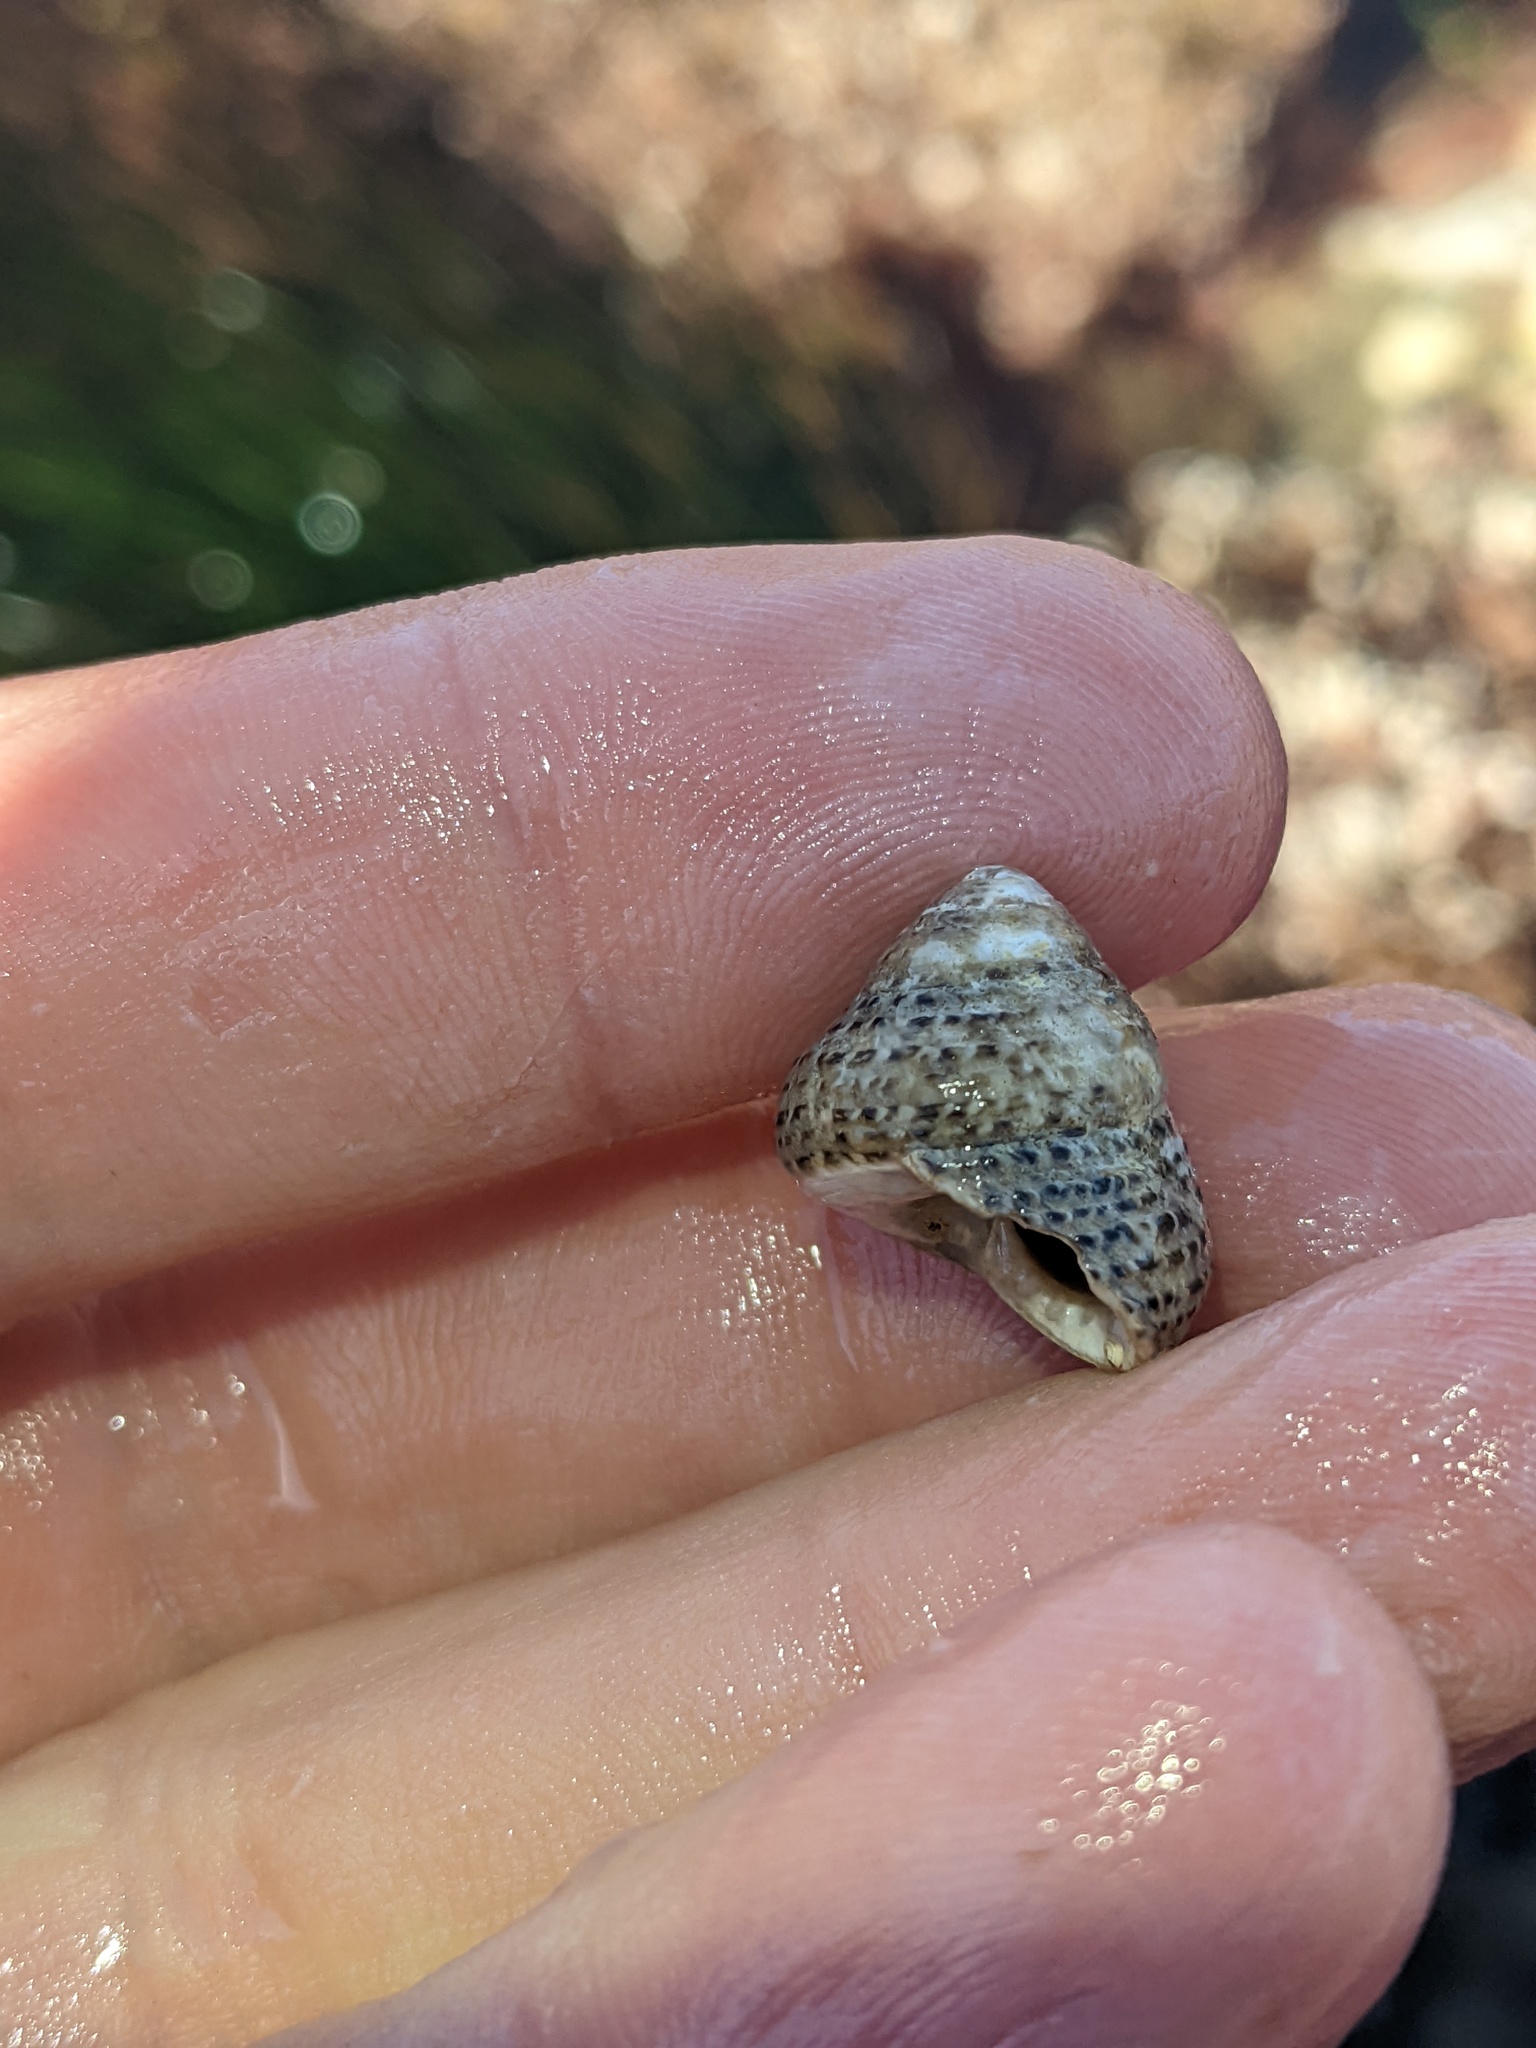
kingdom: Animalia
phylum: Mollusca
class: Gastropoda
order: Trochida
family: Tegulidae
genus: Tegula
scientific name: Tegula eiseni
